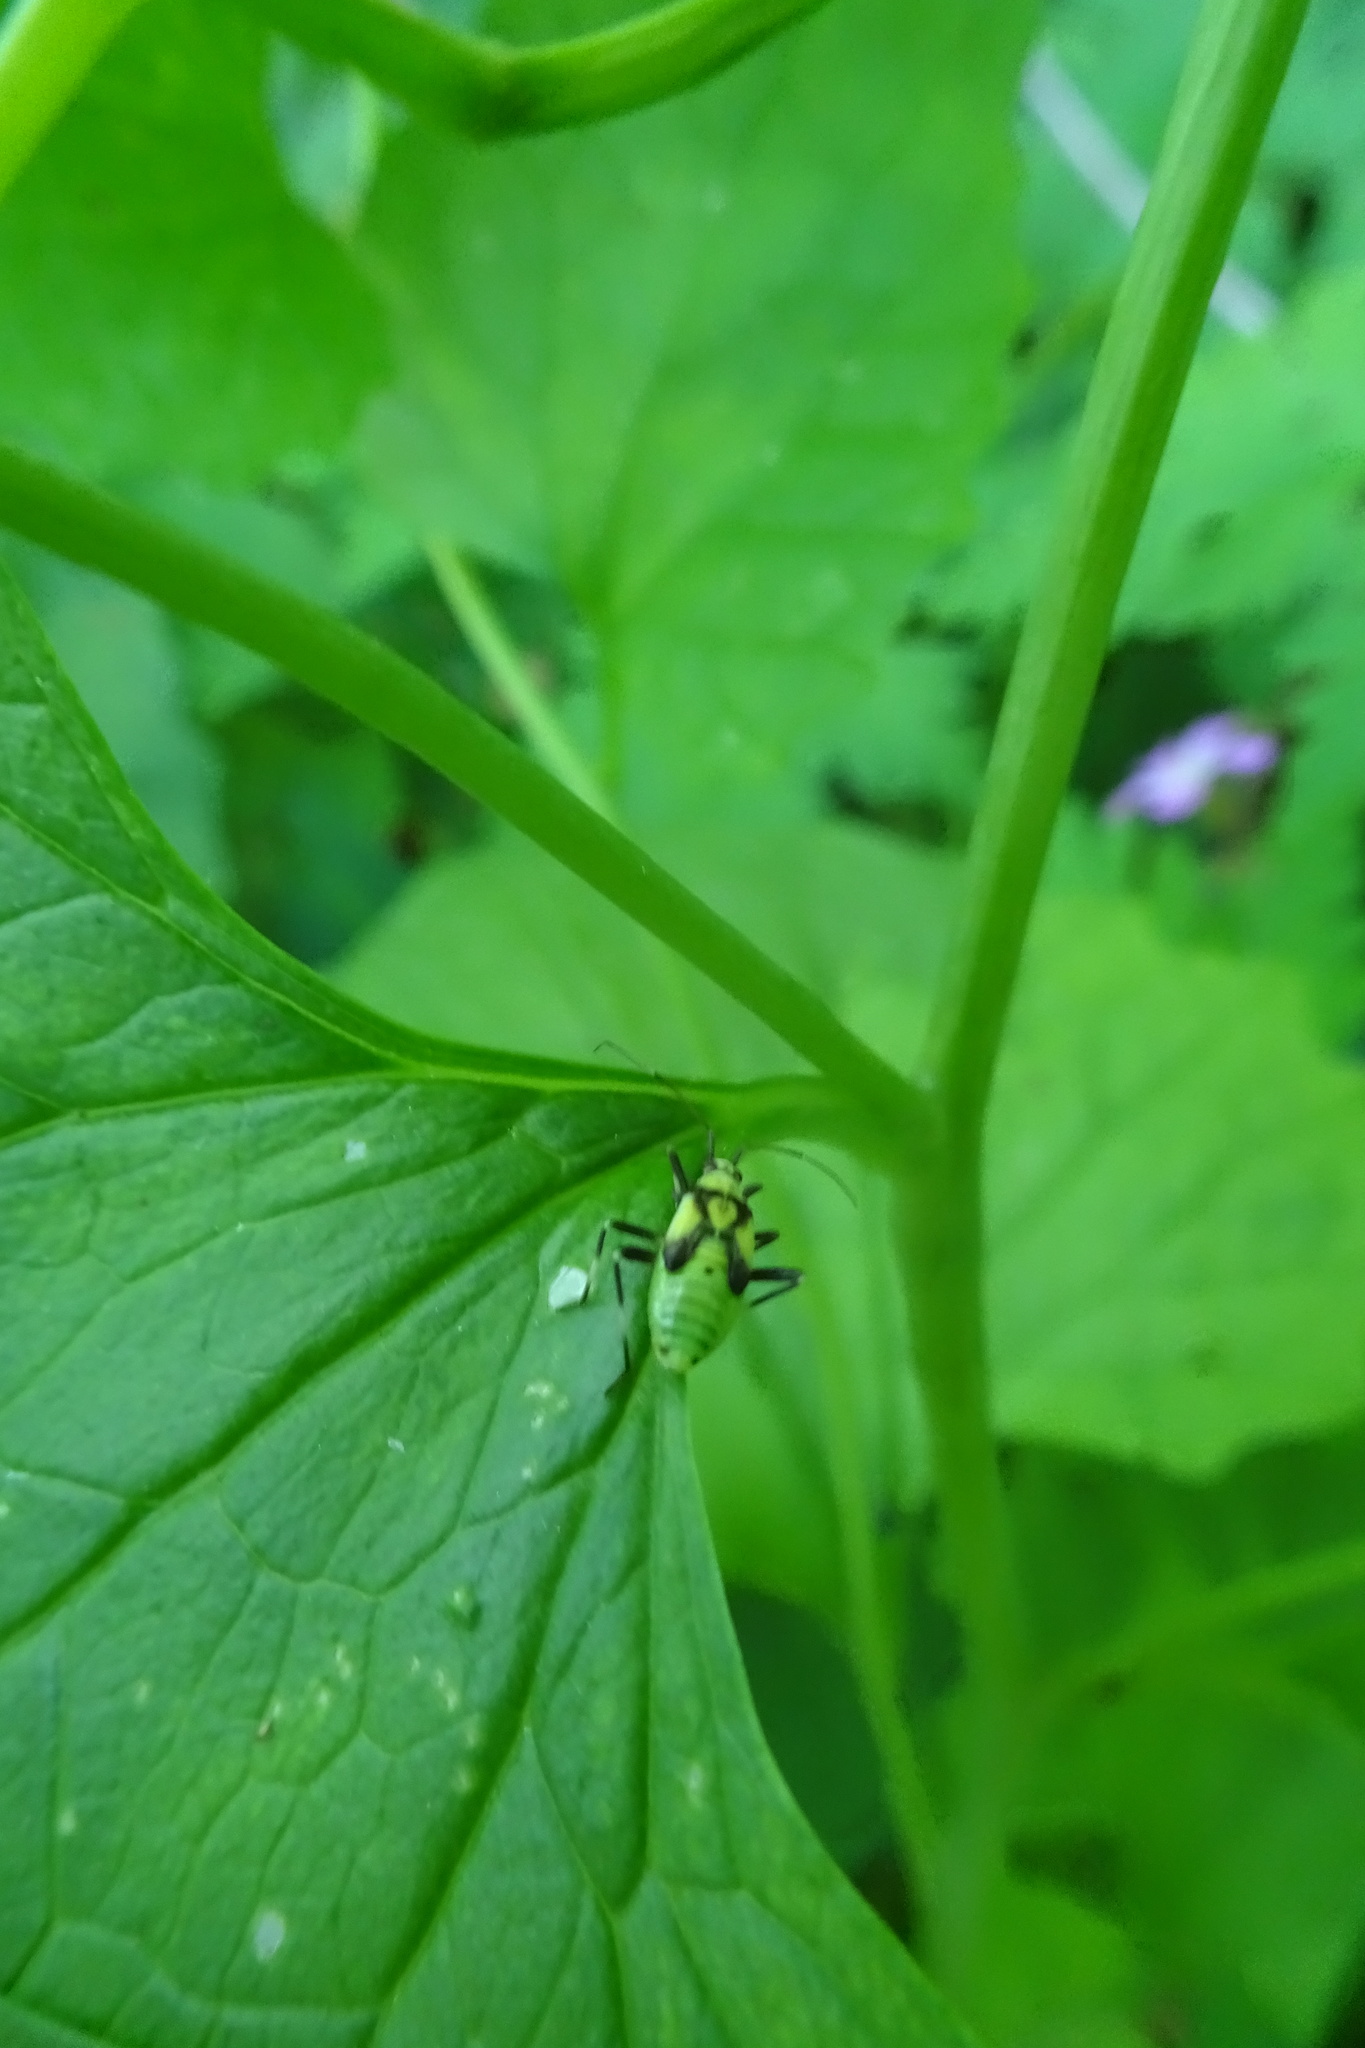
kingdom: Animalia
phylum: Arthropoda
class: Insecta
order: Hemiptera
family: Miridae
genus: Calocoris
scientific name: Calocoris alpestris
